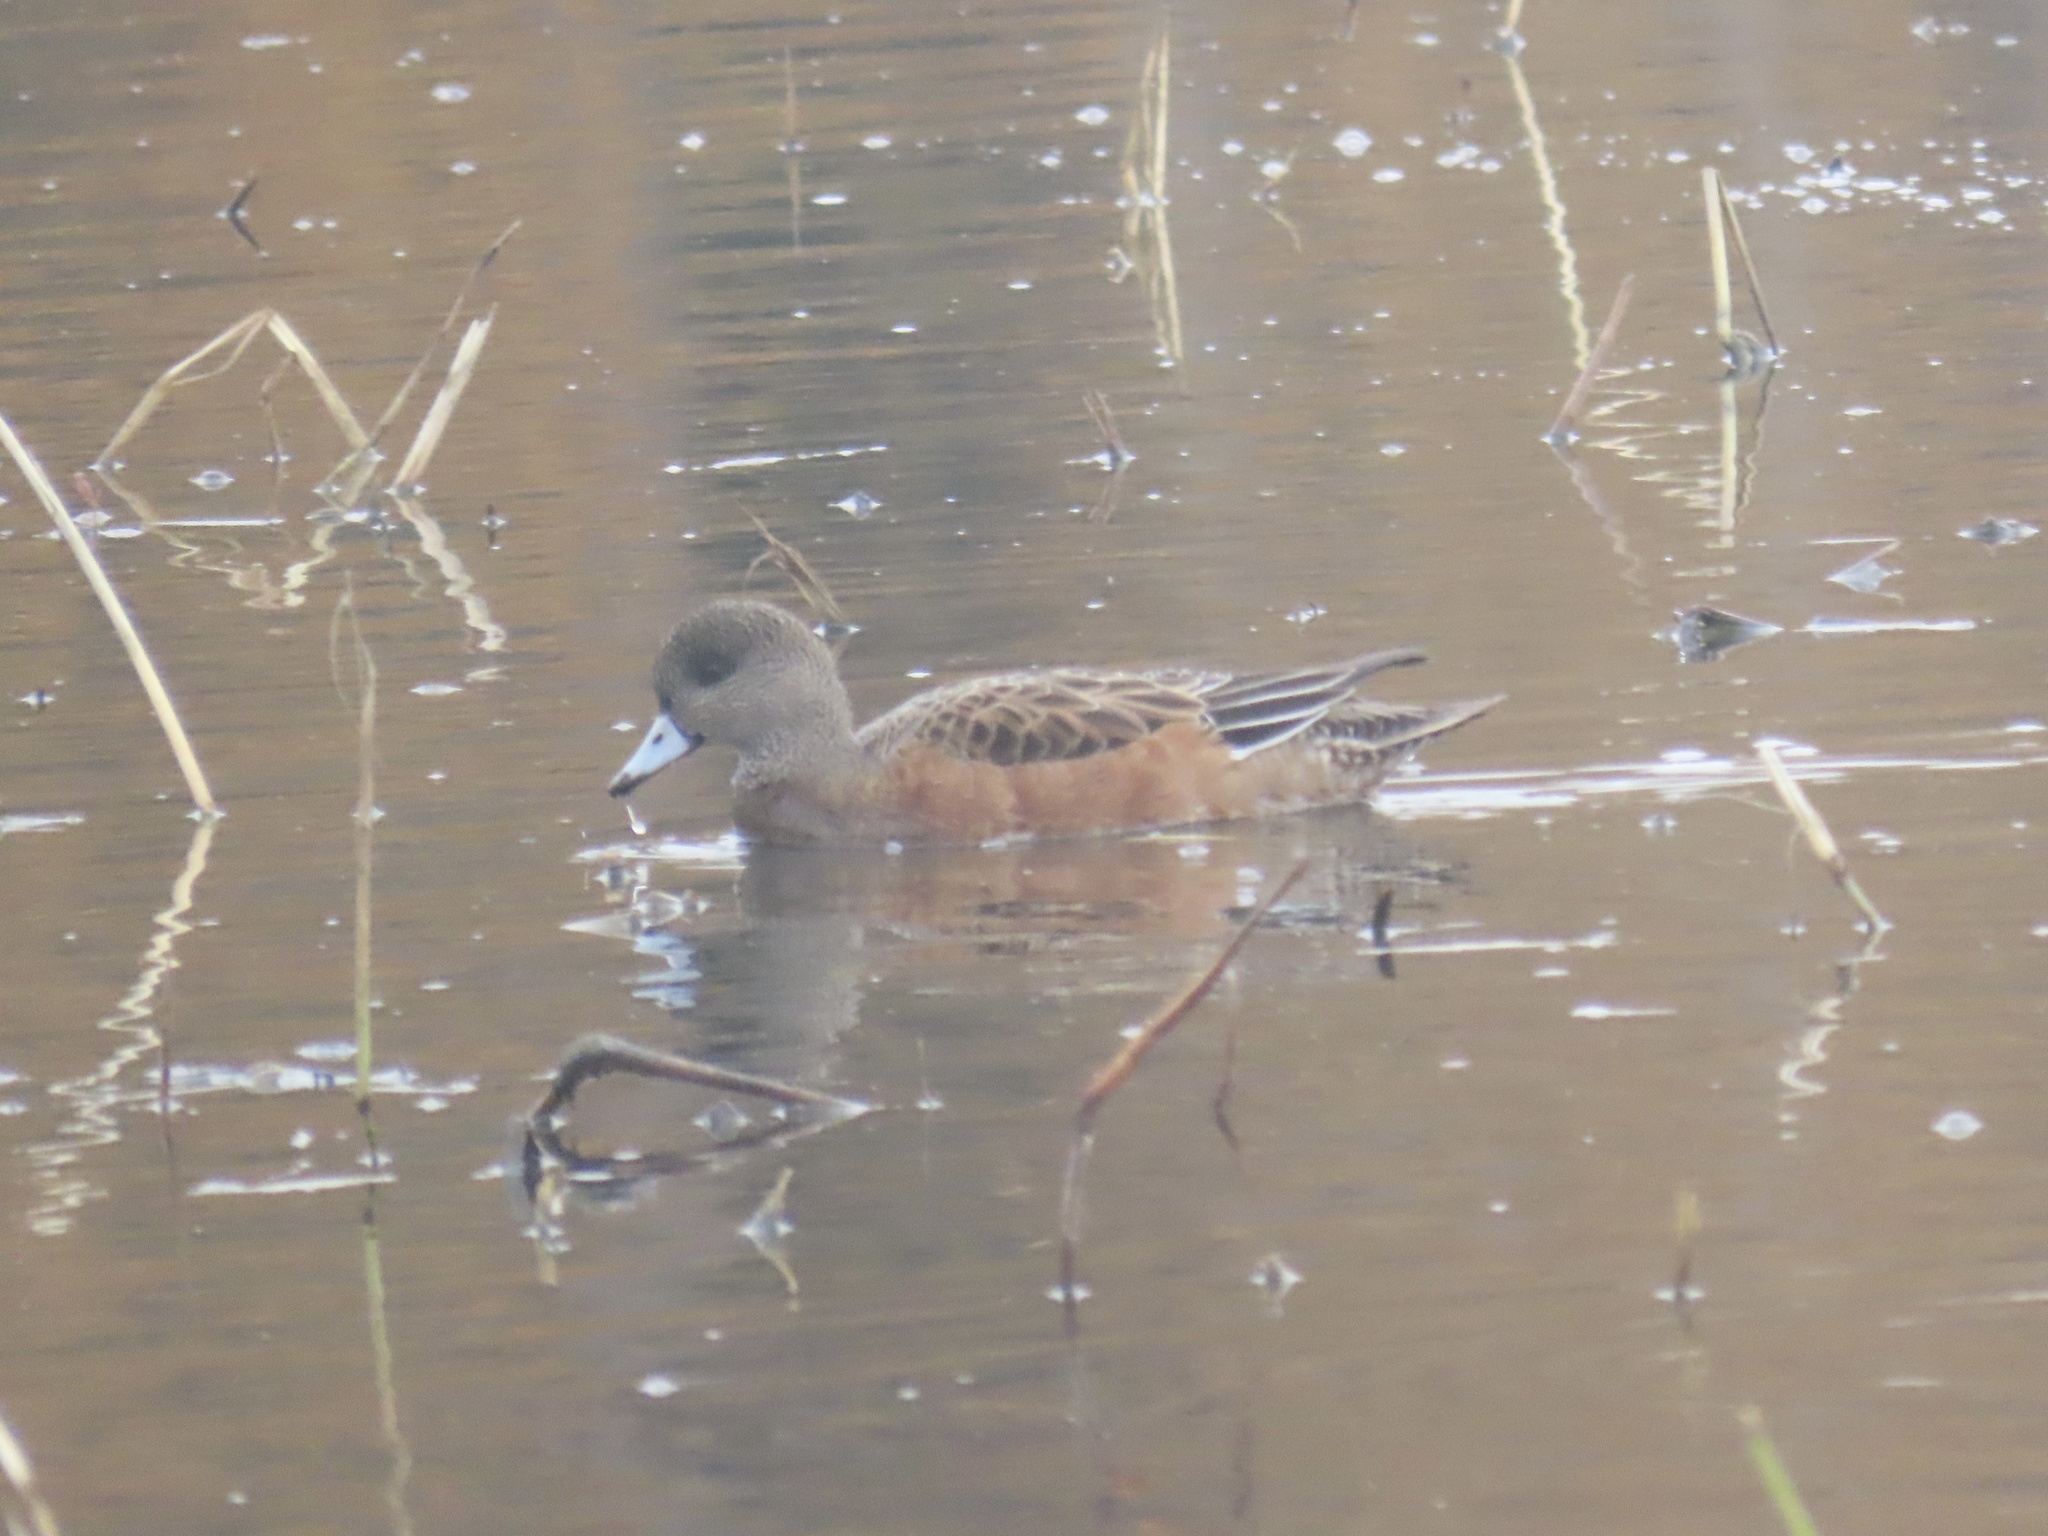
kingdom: Animalia
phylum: Chordata
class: Aves
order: Anseriformes
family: Anatidae
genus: Mareca
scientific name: Mareca americana
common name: American wigeon
